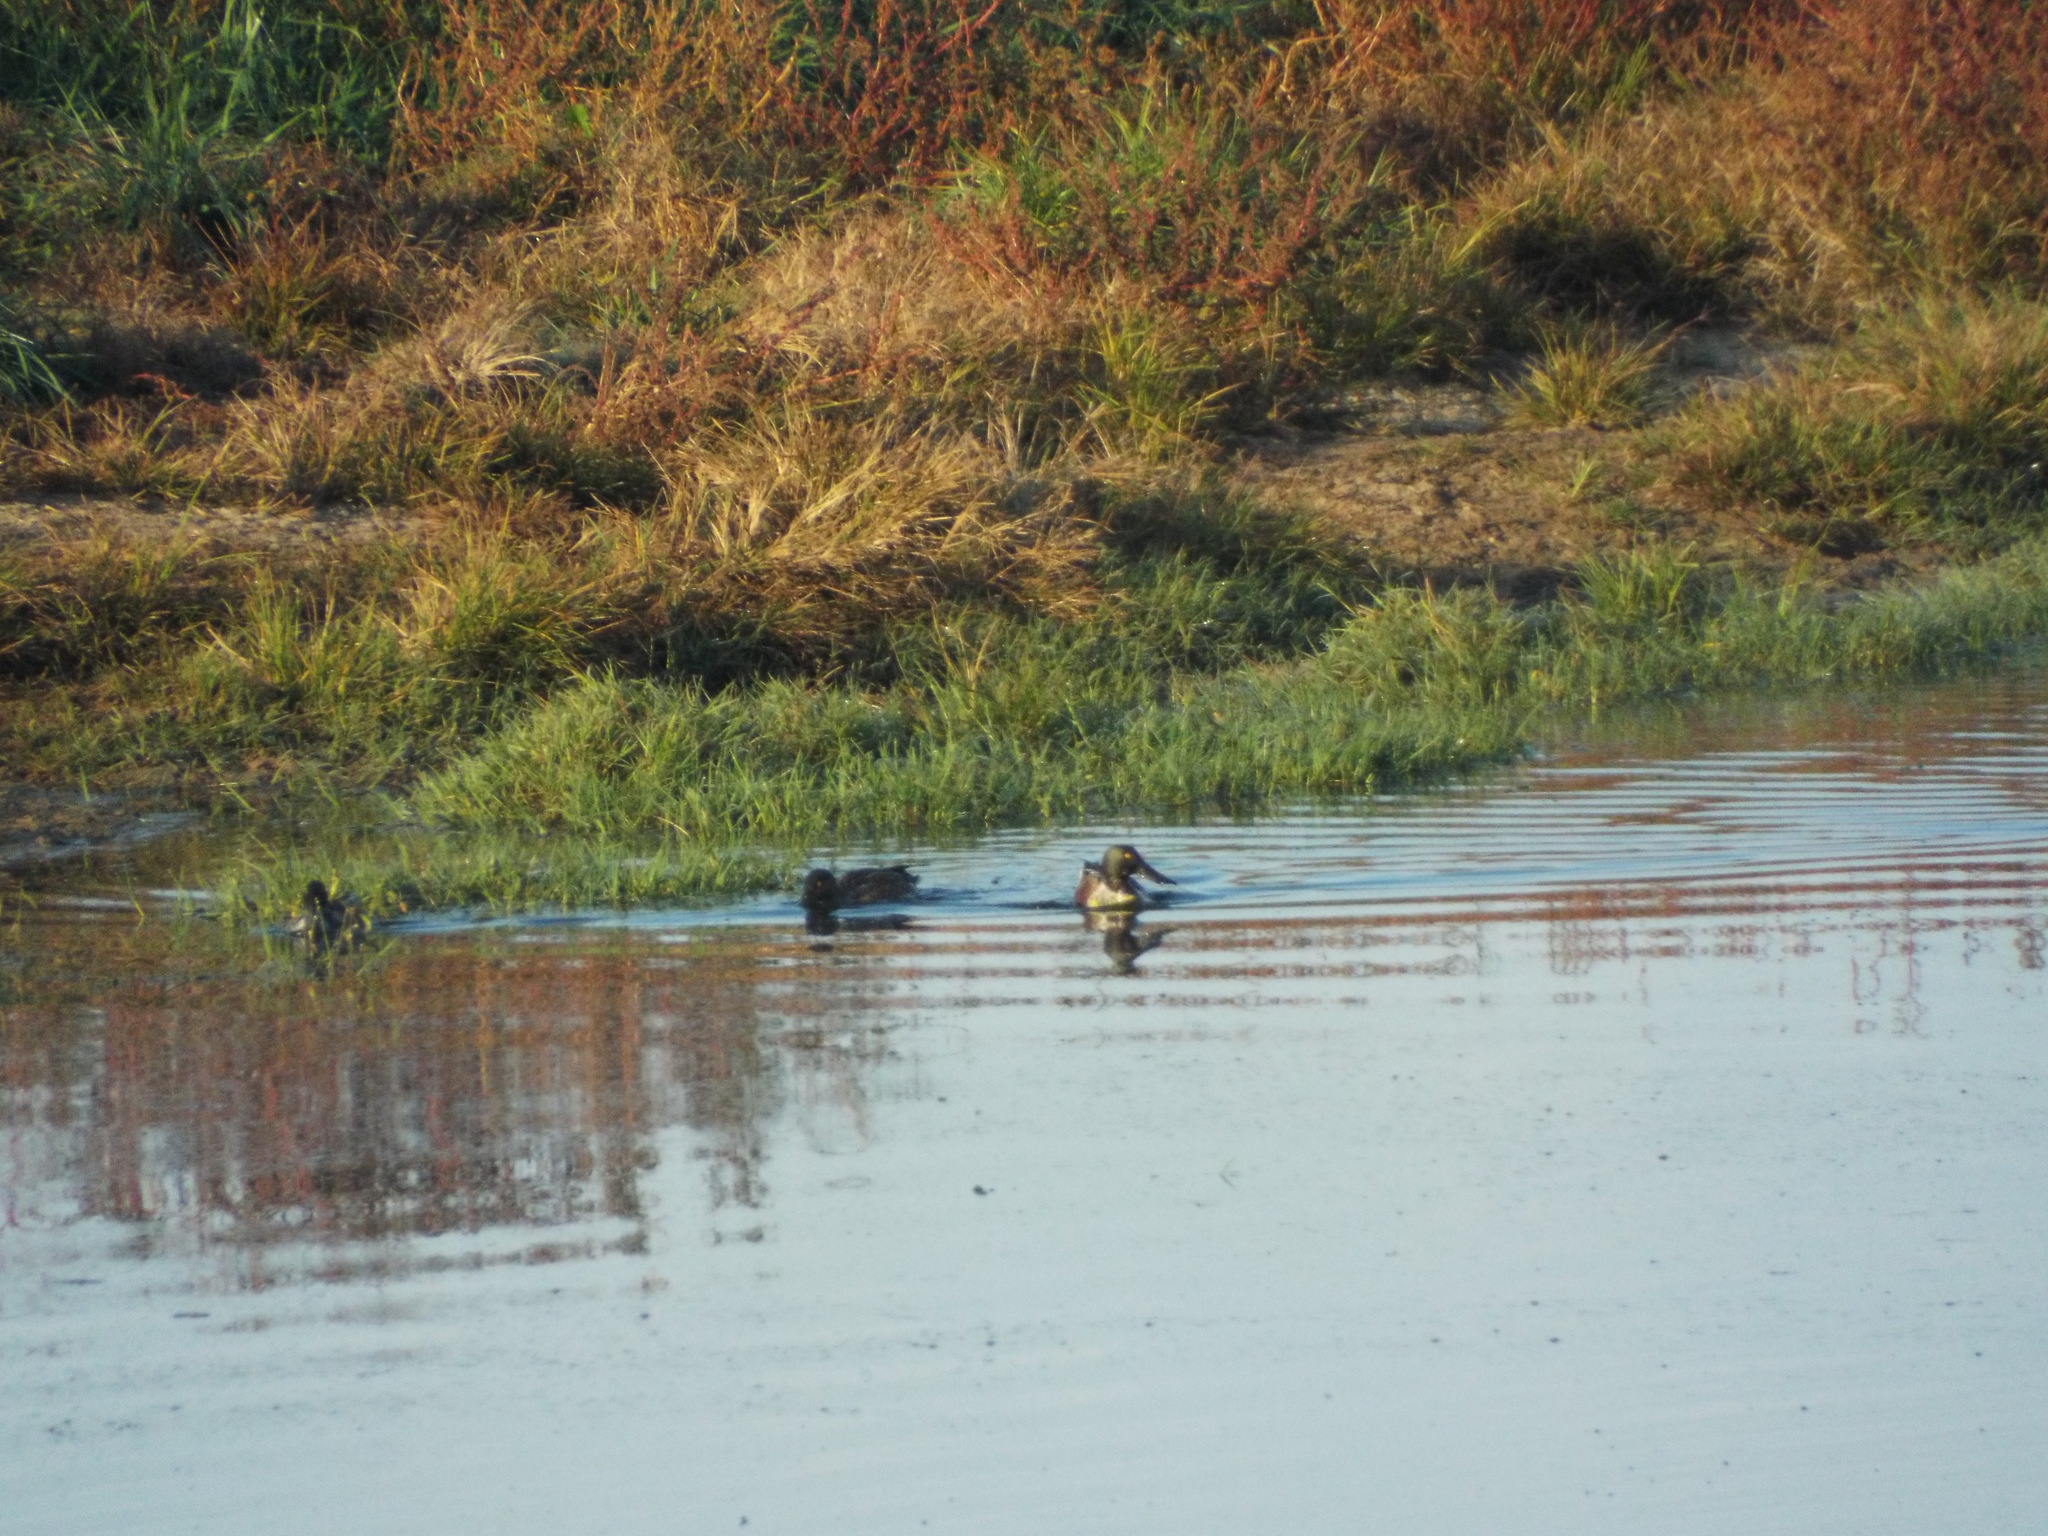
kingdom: Animalia
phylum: Chordata
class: Aves
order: Anseriformes
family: Anatidae
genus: Spatula
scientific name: Spatula clypeata
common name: Northern shoveler
